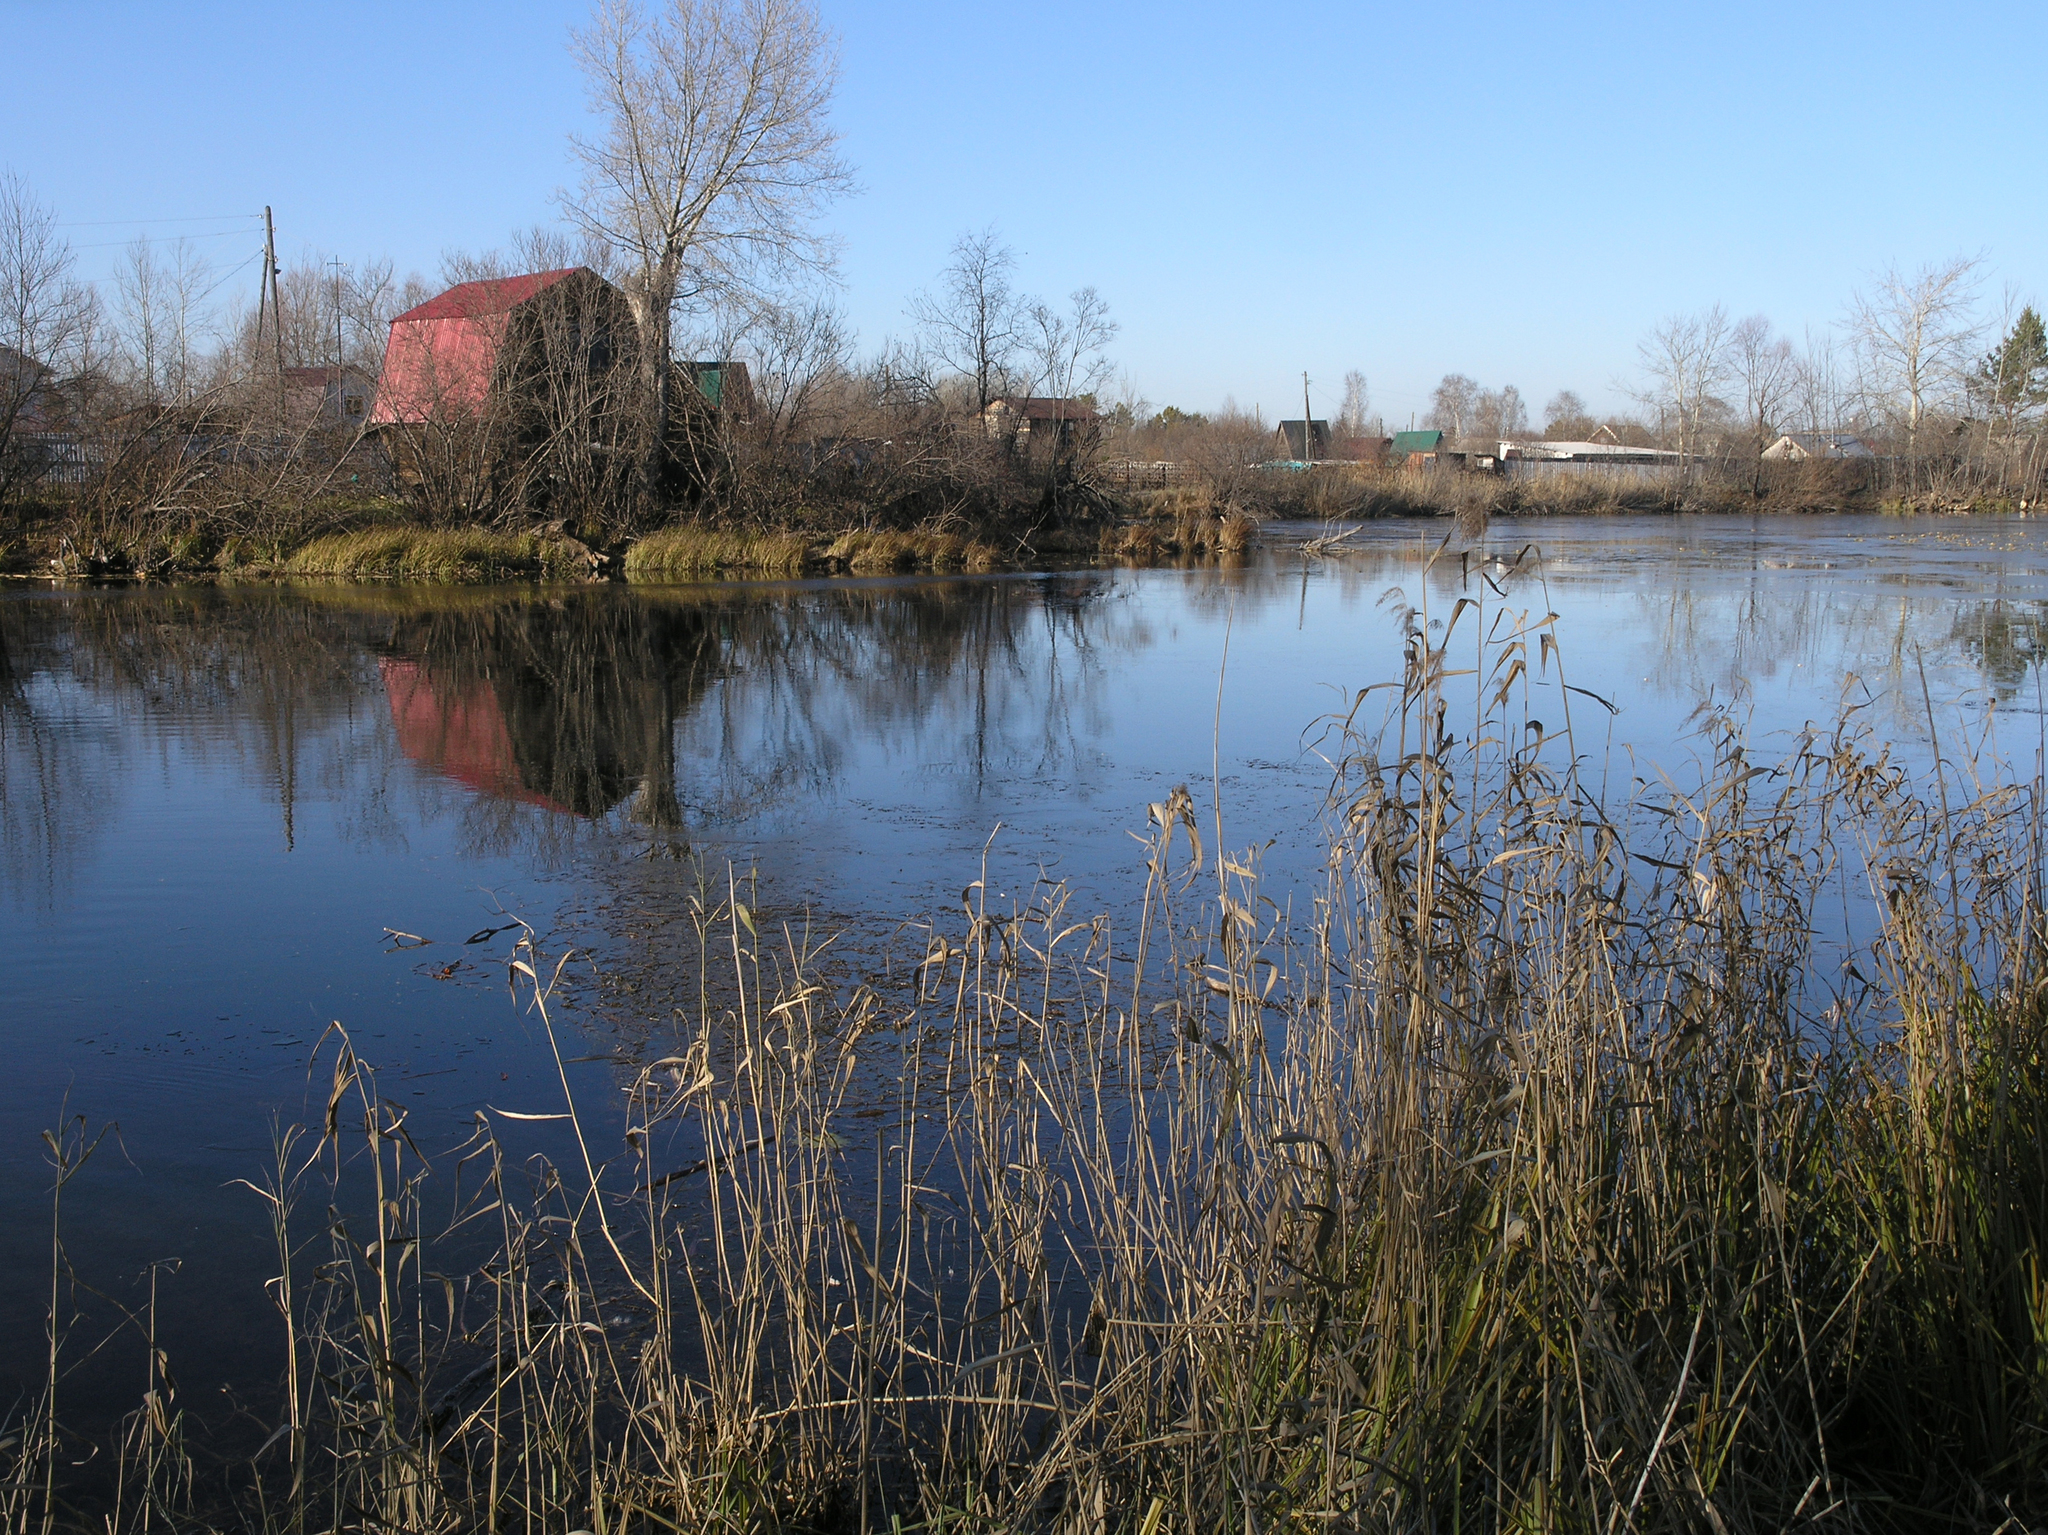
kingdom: Plantae
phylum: Tracheophyta
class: Liliopsida
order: Poales
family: Poaceae
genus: Phragmites
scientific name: Phragmites australis
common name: Common reed
